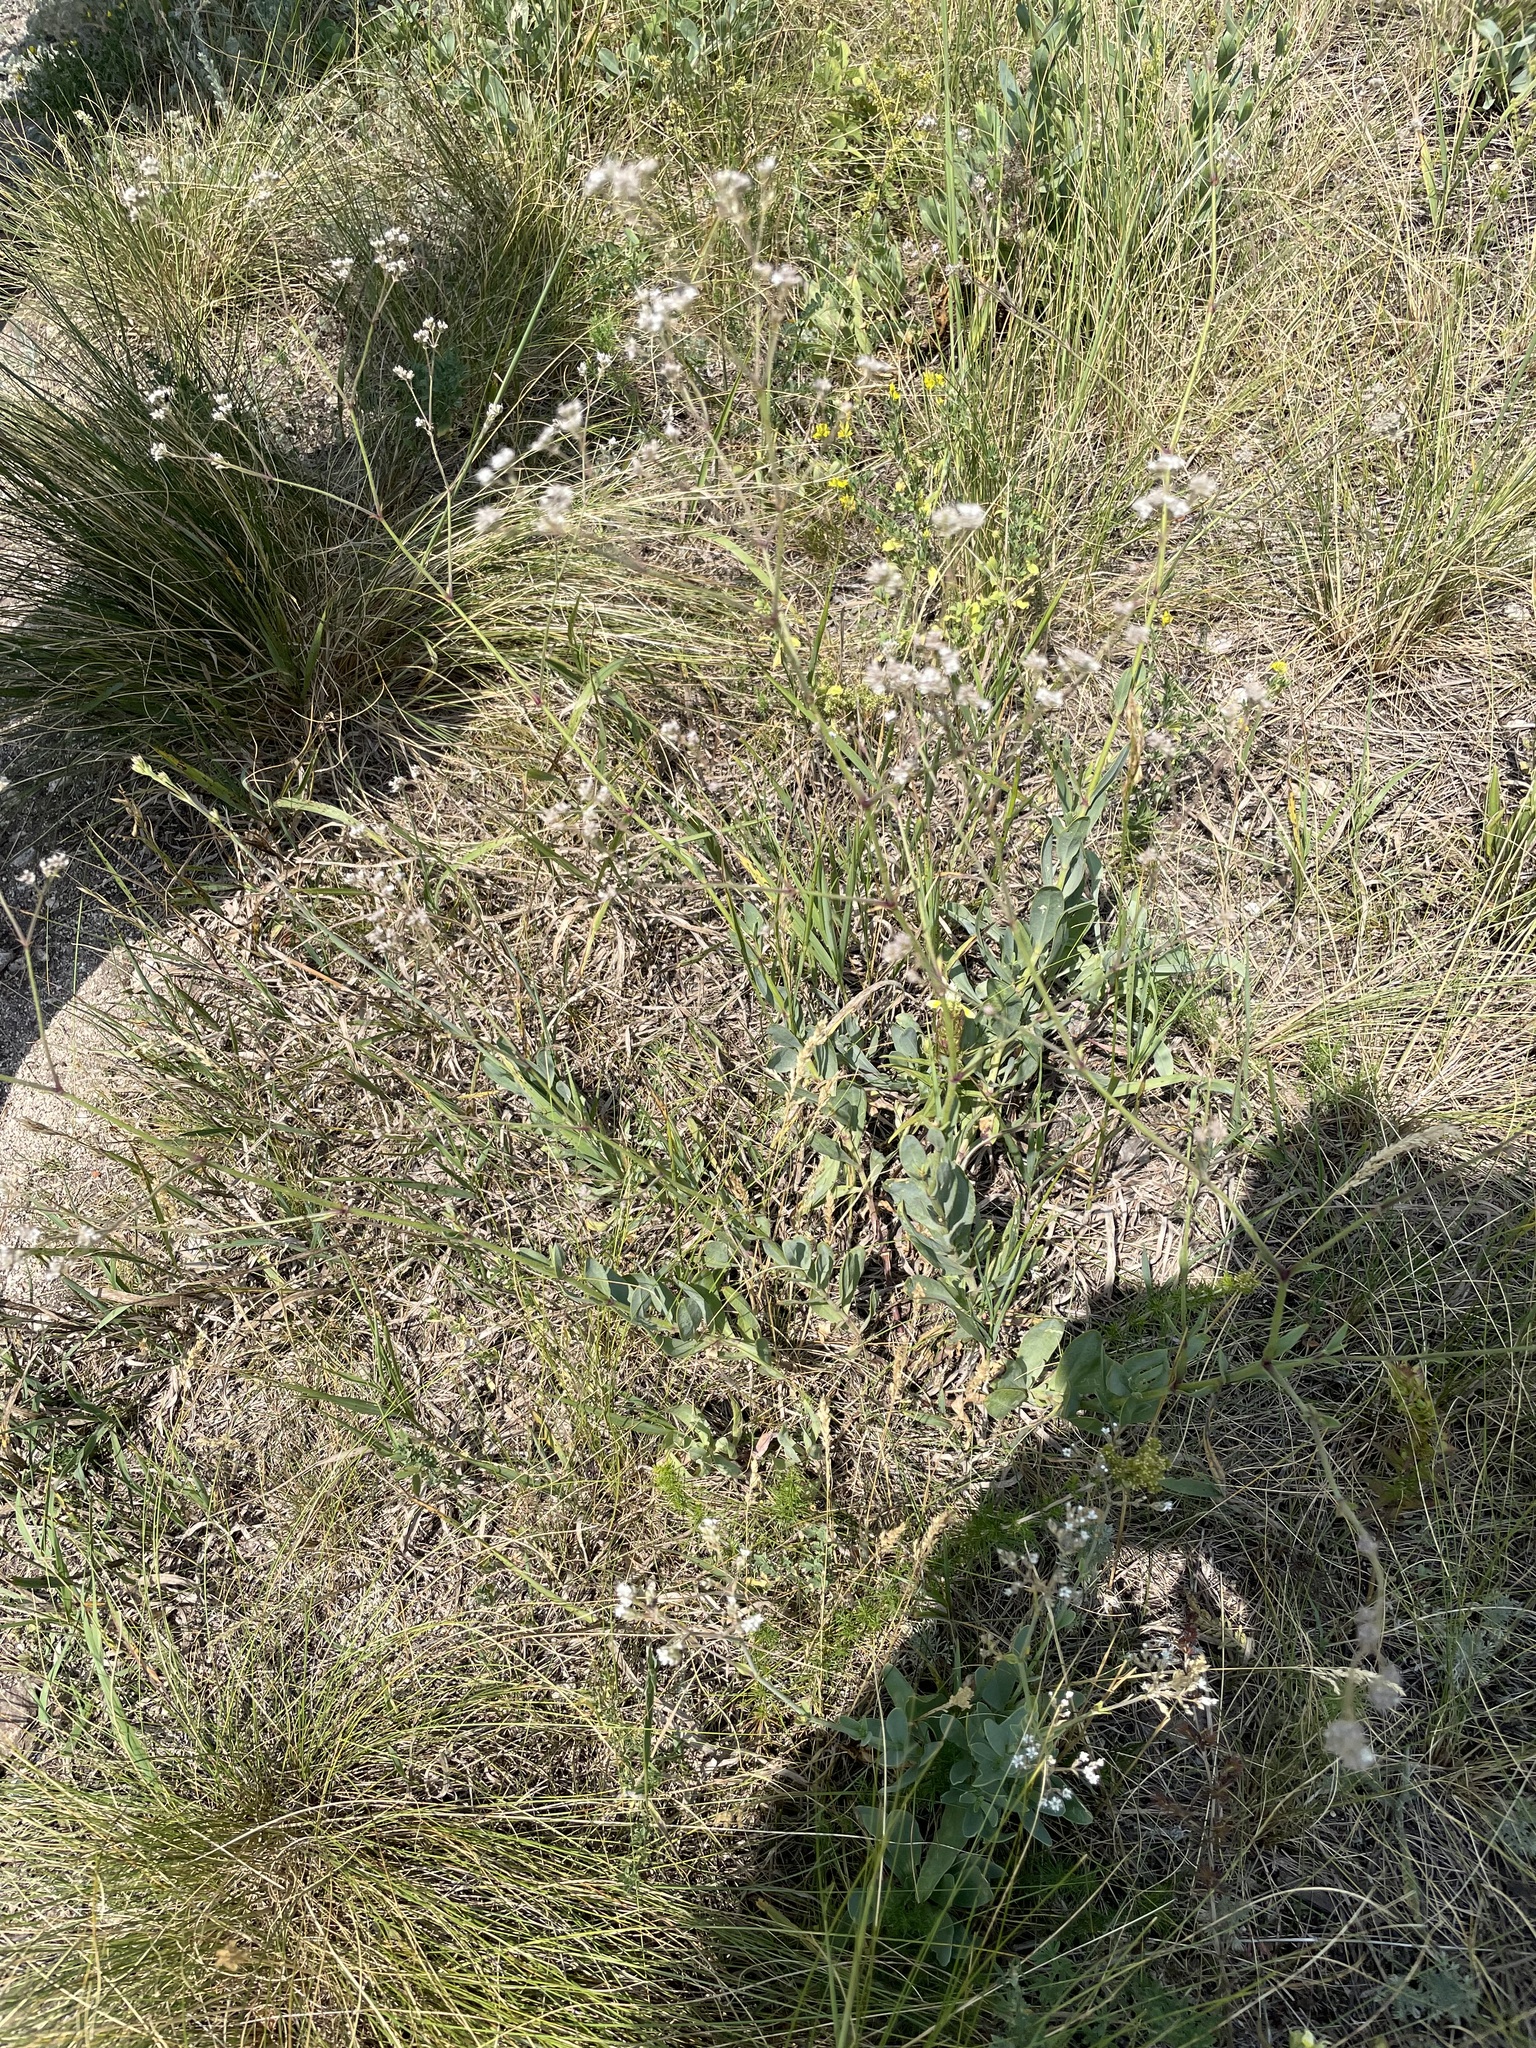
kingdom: Plantae
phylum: Tracheophyta
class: Magnoliopsida
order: Caryophyllales
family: Caryophyllaceae
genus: Gypsophila
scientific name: Gypsophila altissima
